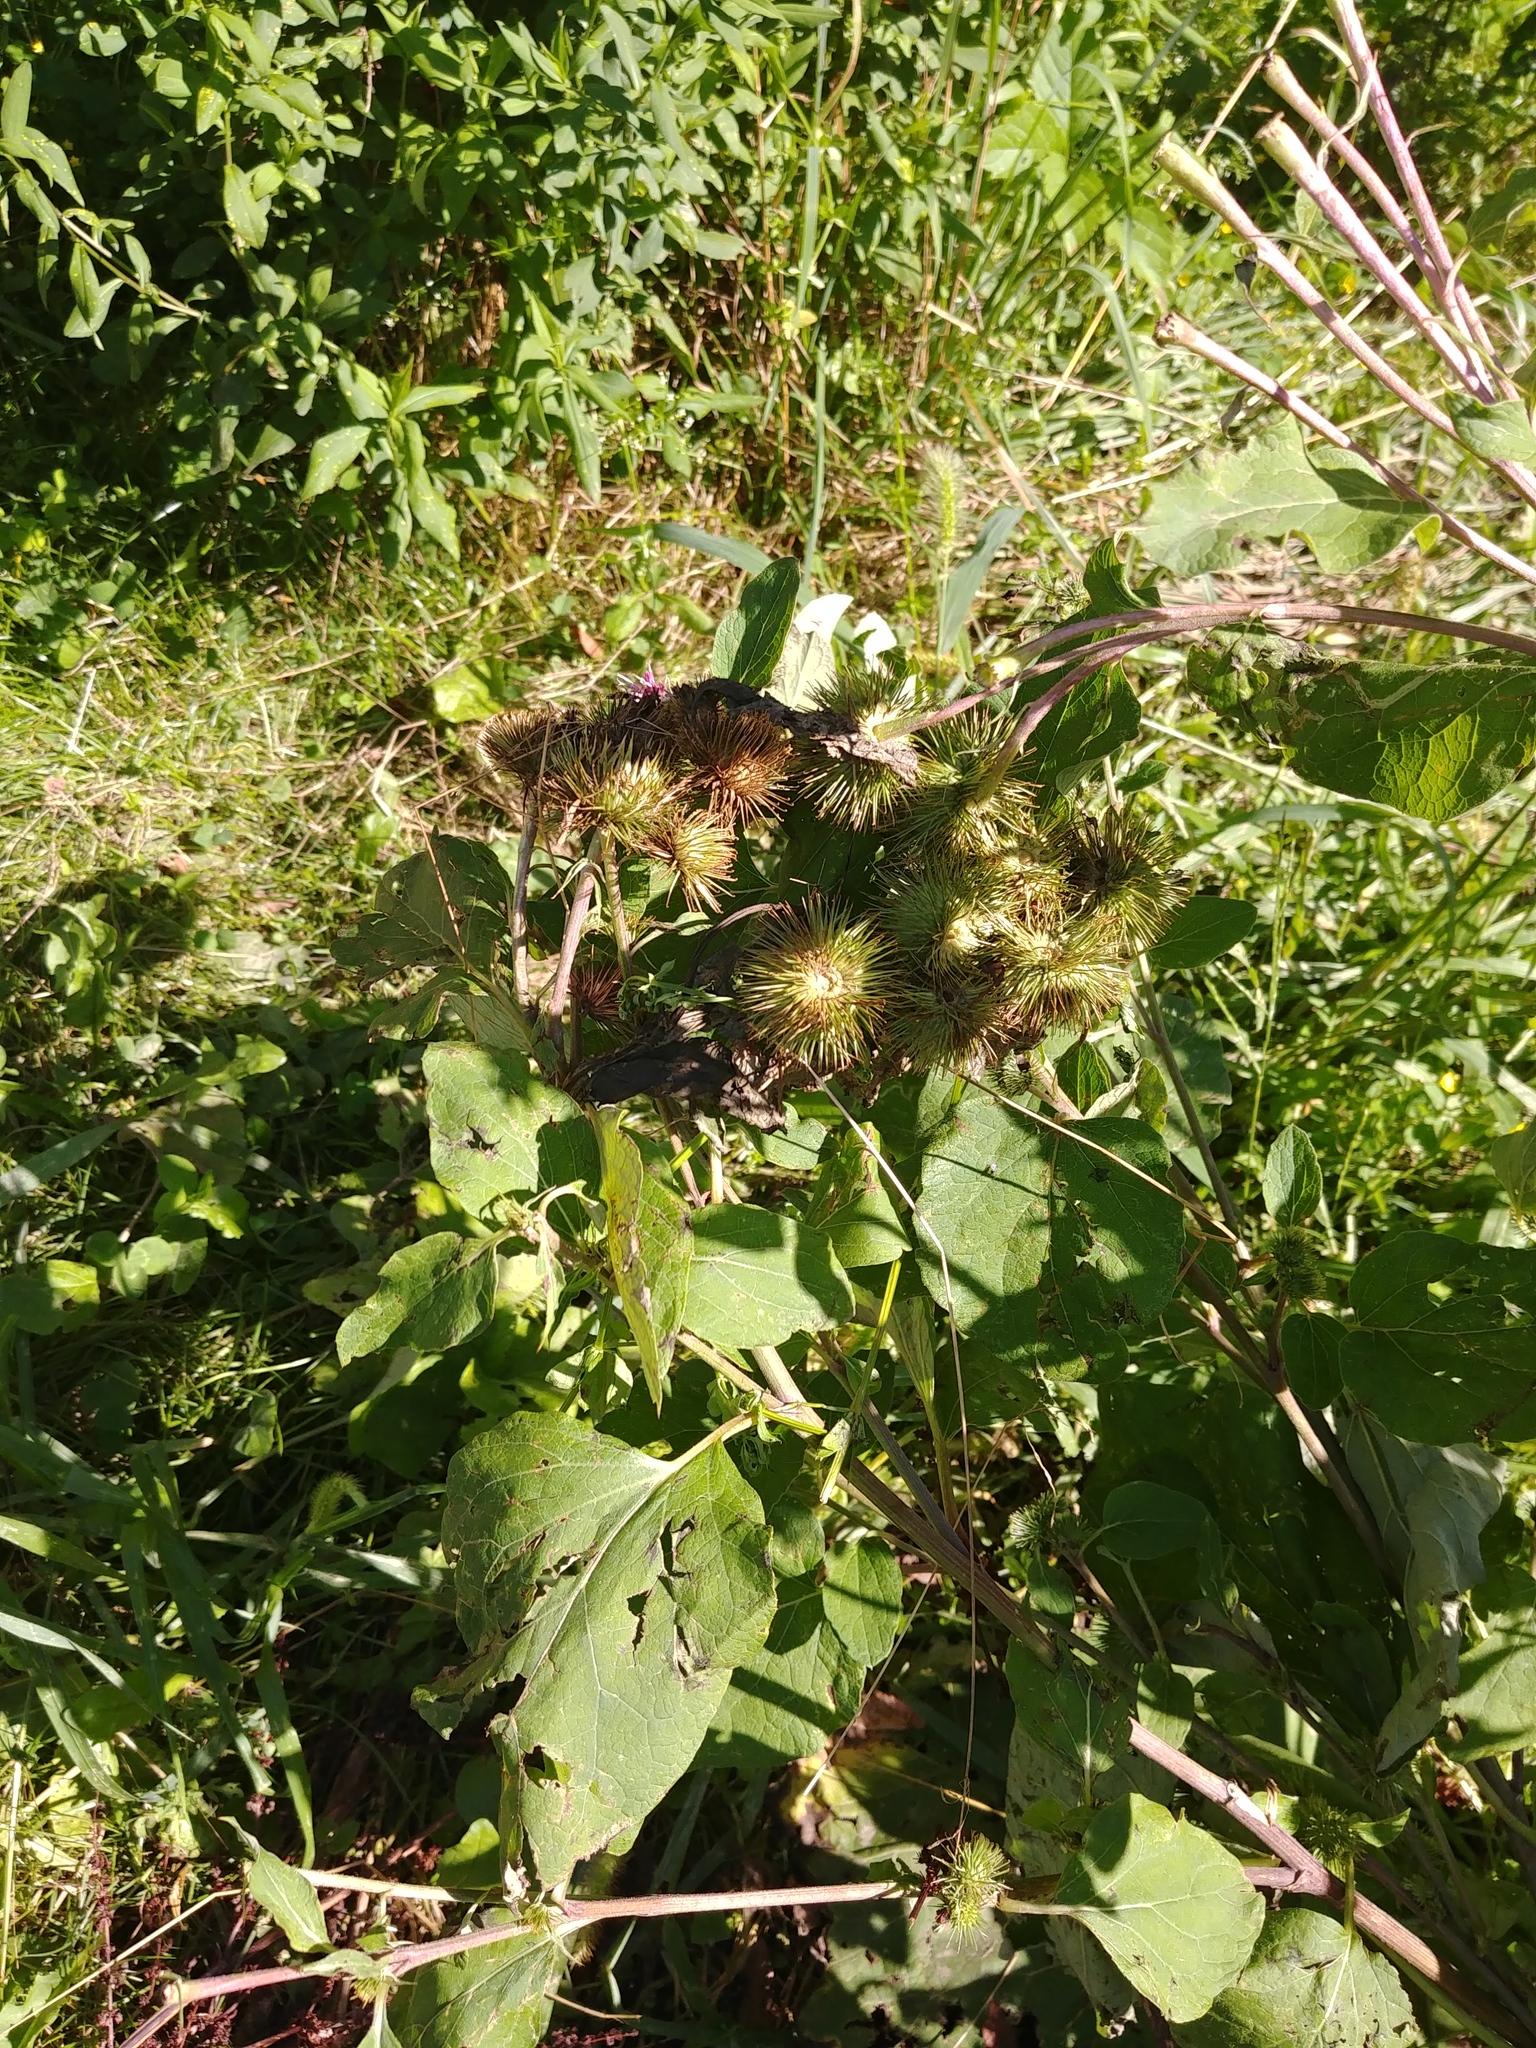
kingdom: Plantae
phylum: Tracheophyta
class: Magnoliopsida
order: Asterales
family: Asteraceae
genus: Arctium
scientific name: Arctium lappa
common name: Greater burdock
